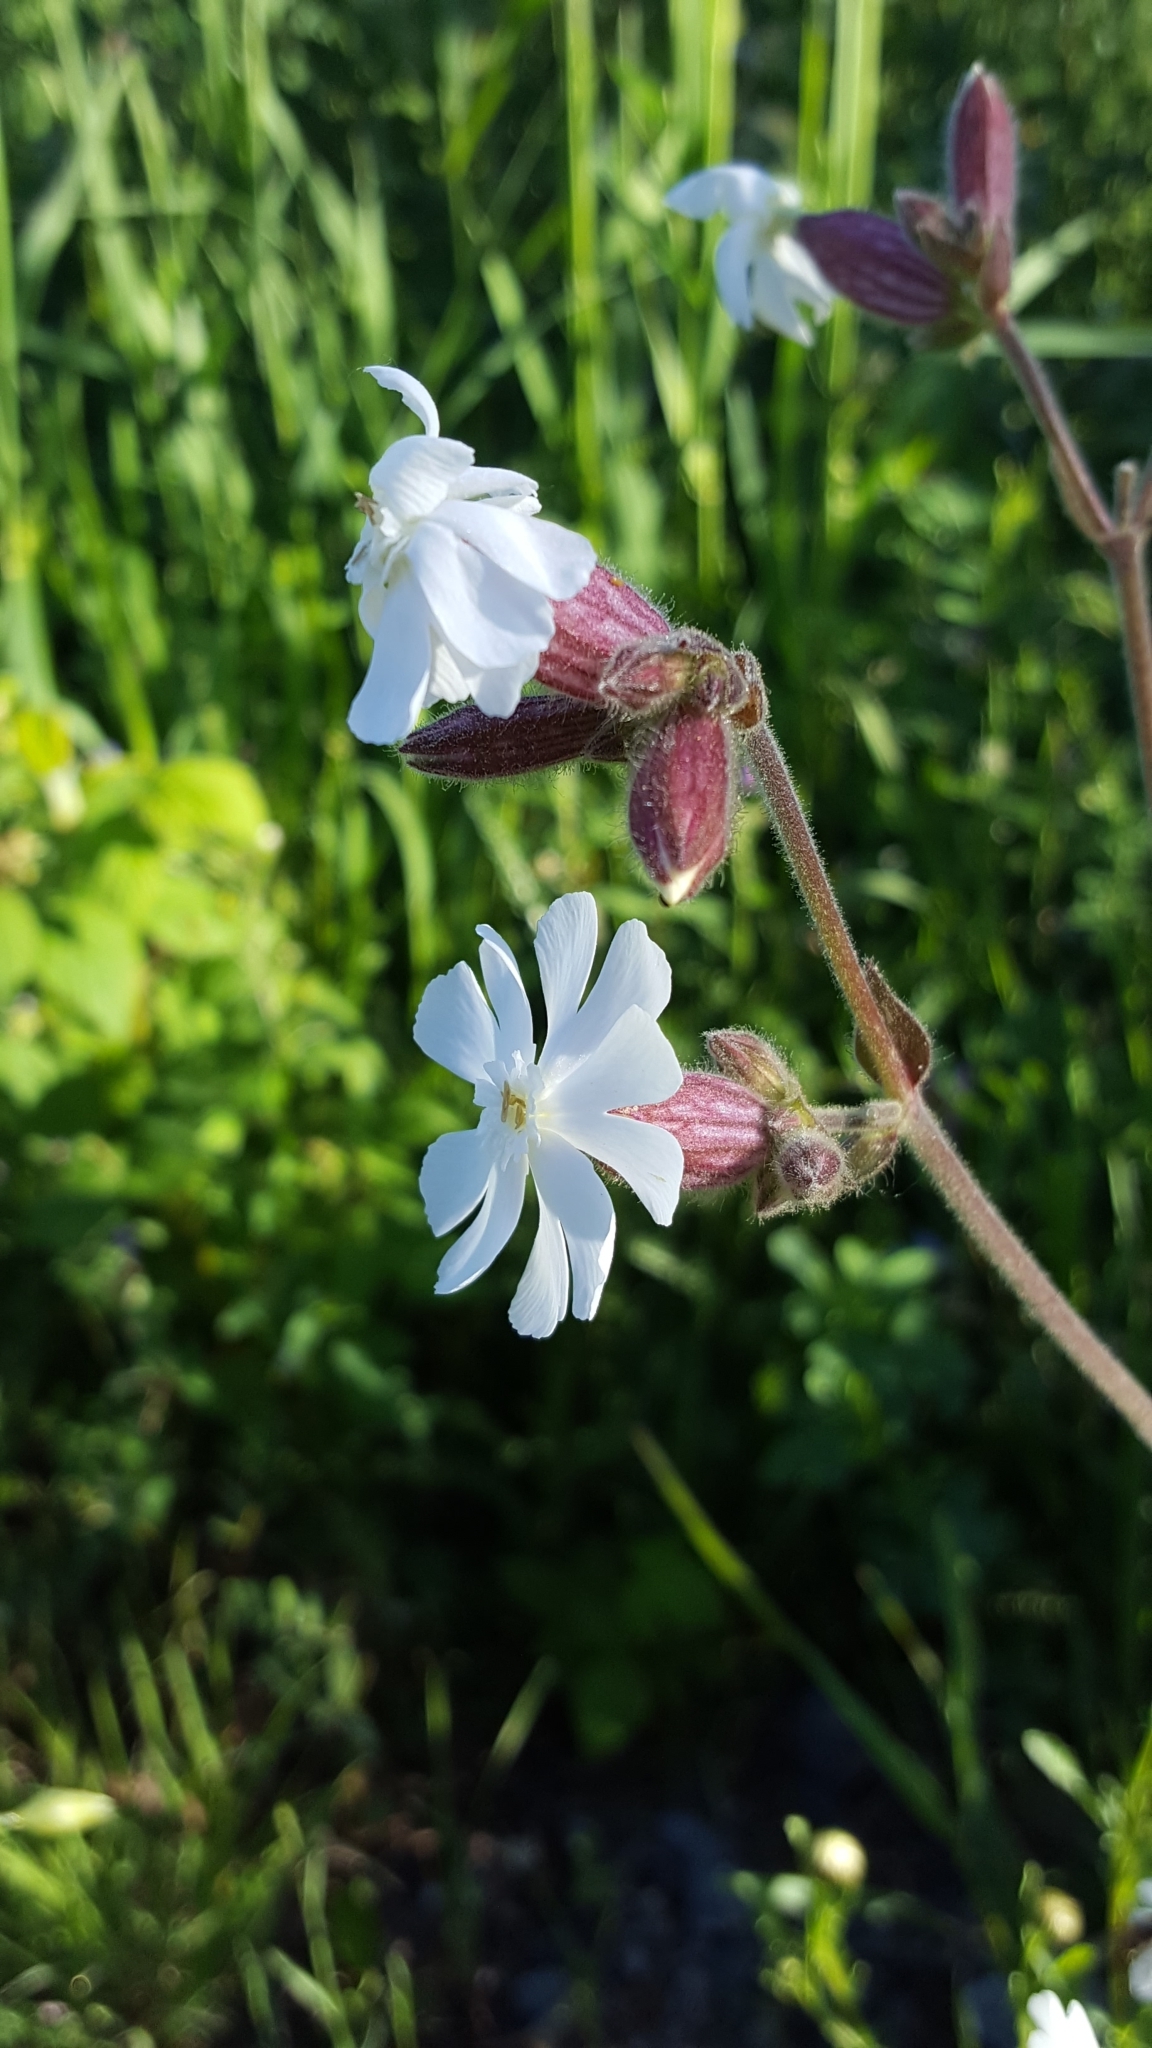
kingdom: Plantae
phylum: Tracheophyta
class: Magnoliopsida
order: Caryophyllales
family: Caryophyllaceae
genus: Silene
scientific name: Silene latifolia
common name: White campion
